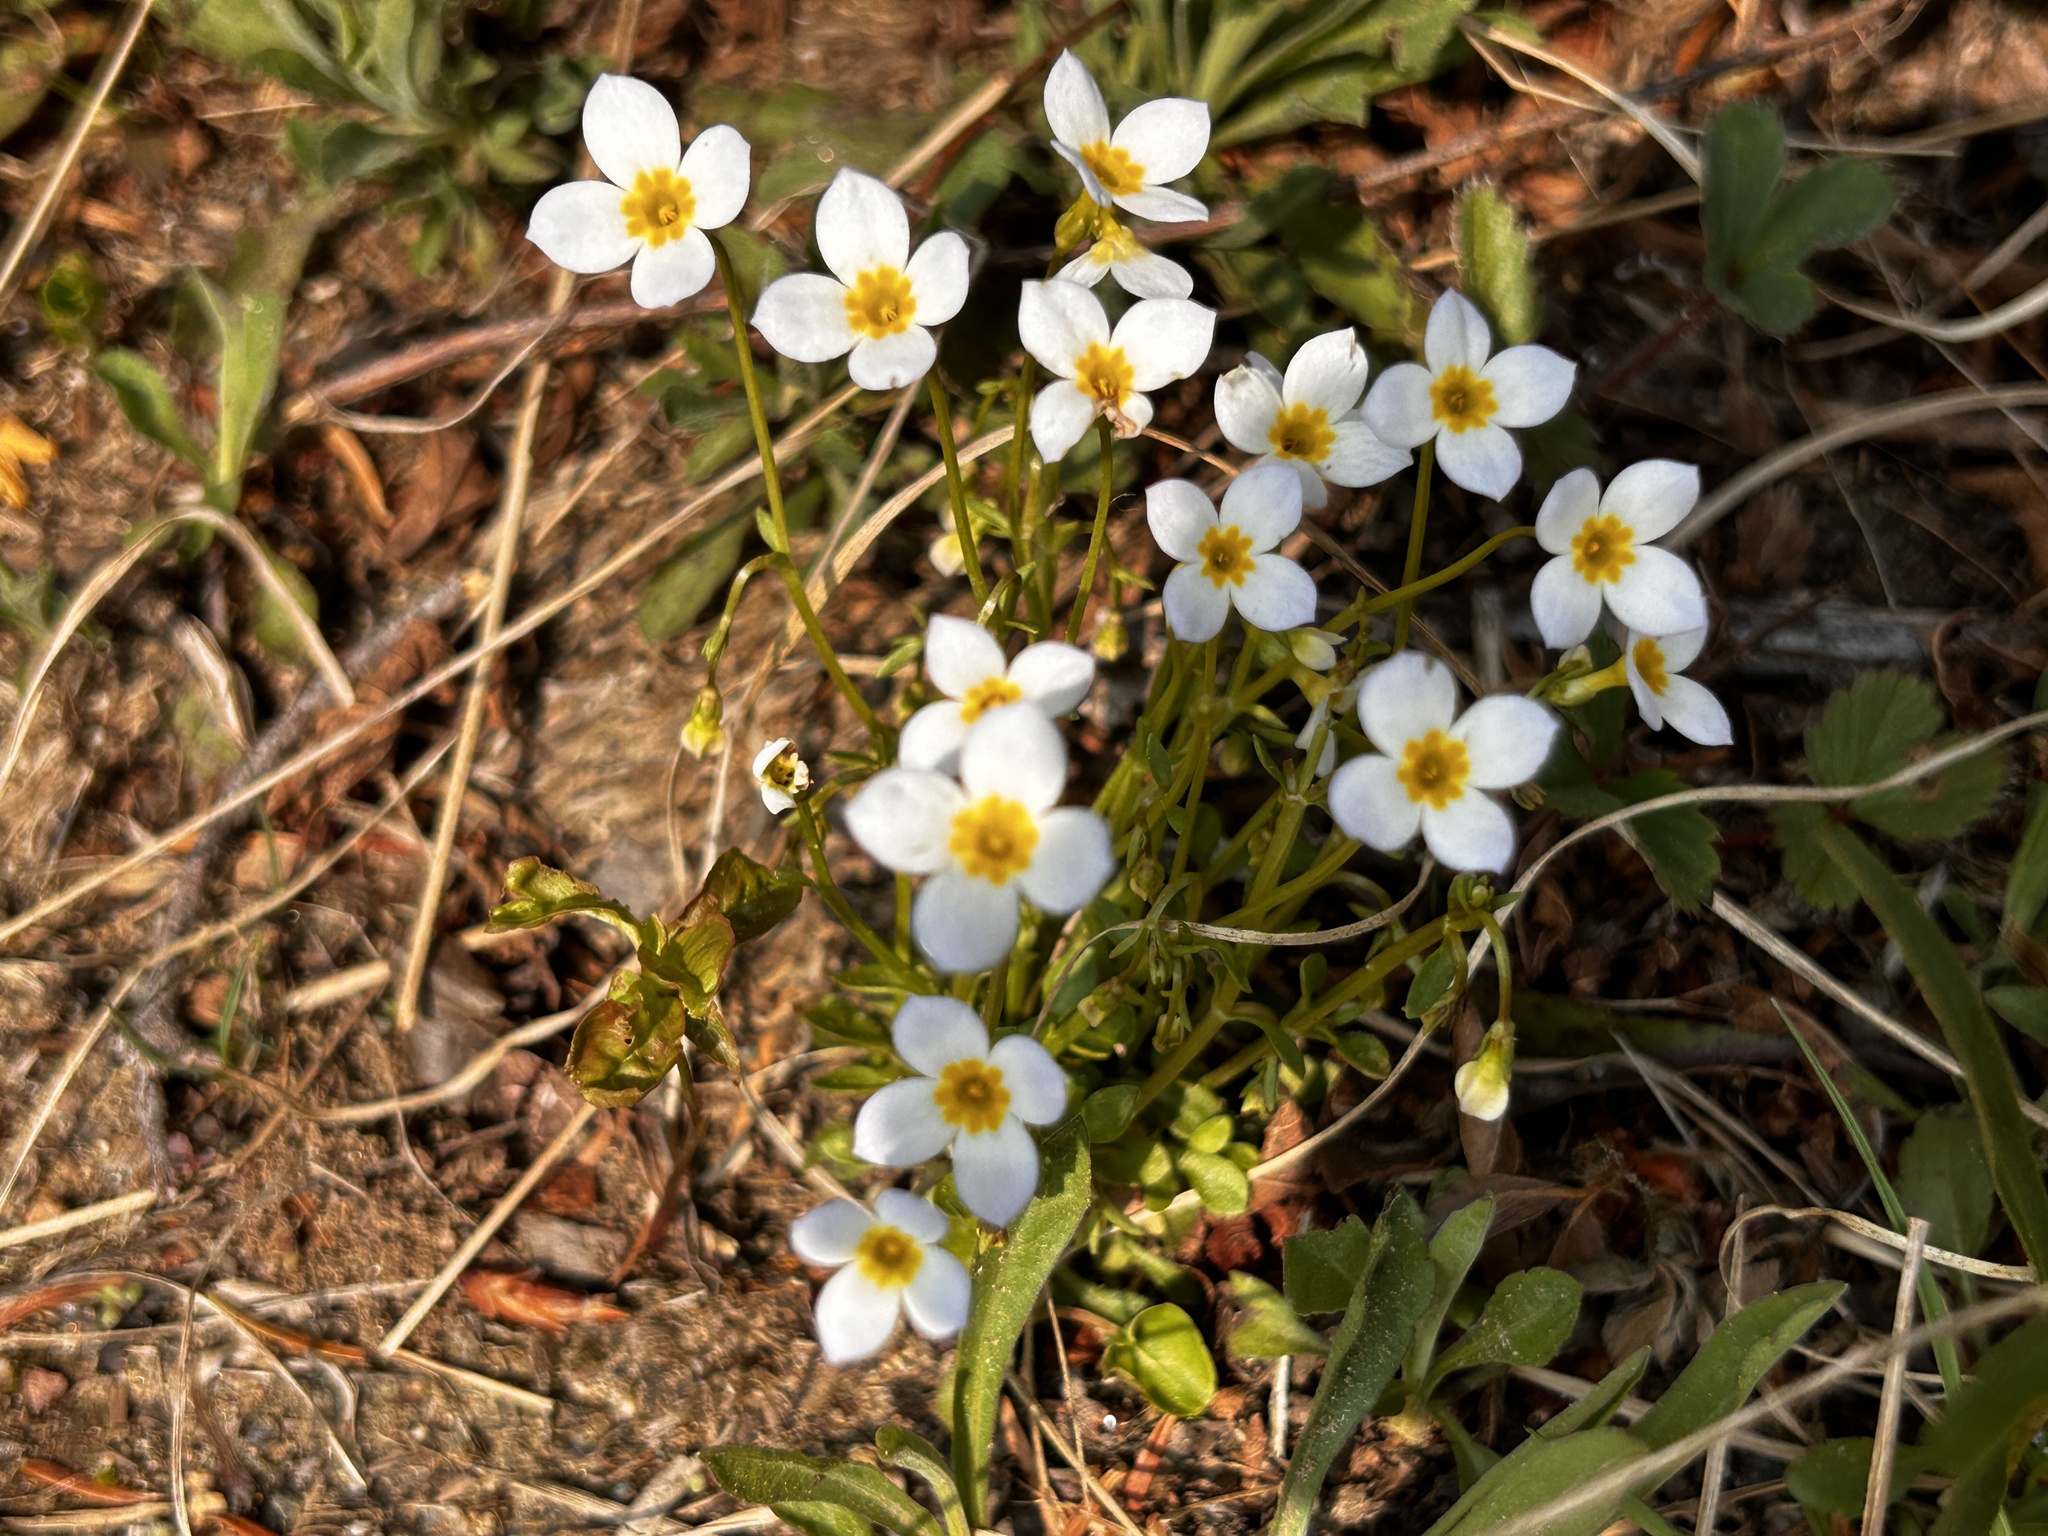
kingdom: Plantae
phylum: Tracheophyta
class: Magnoliopsida
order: Gentianales
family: Rubiaceae
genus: Houstonia
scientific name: Houstonia caerulea
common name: Bluets
